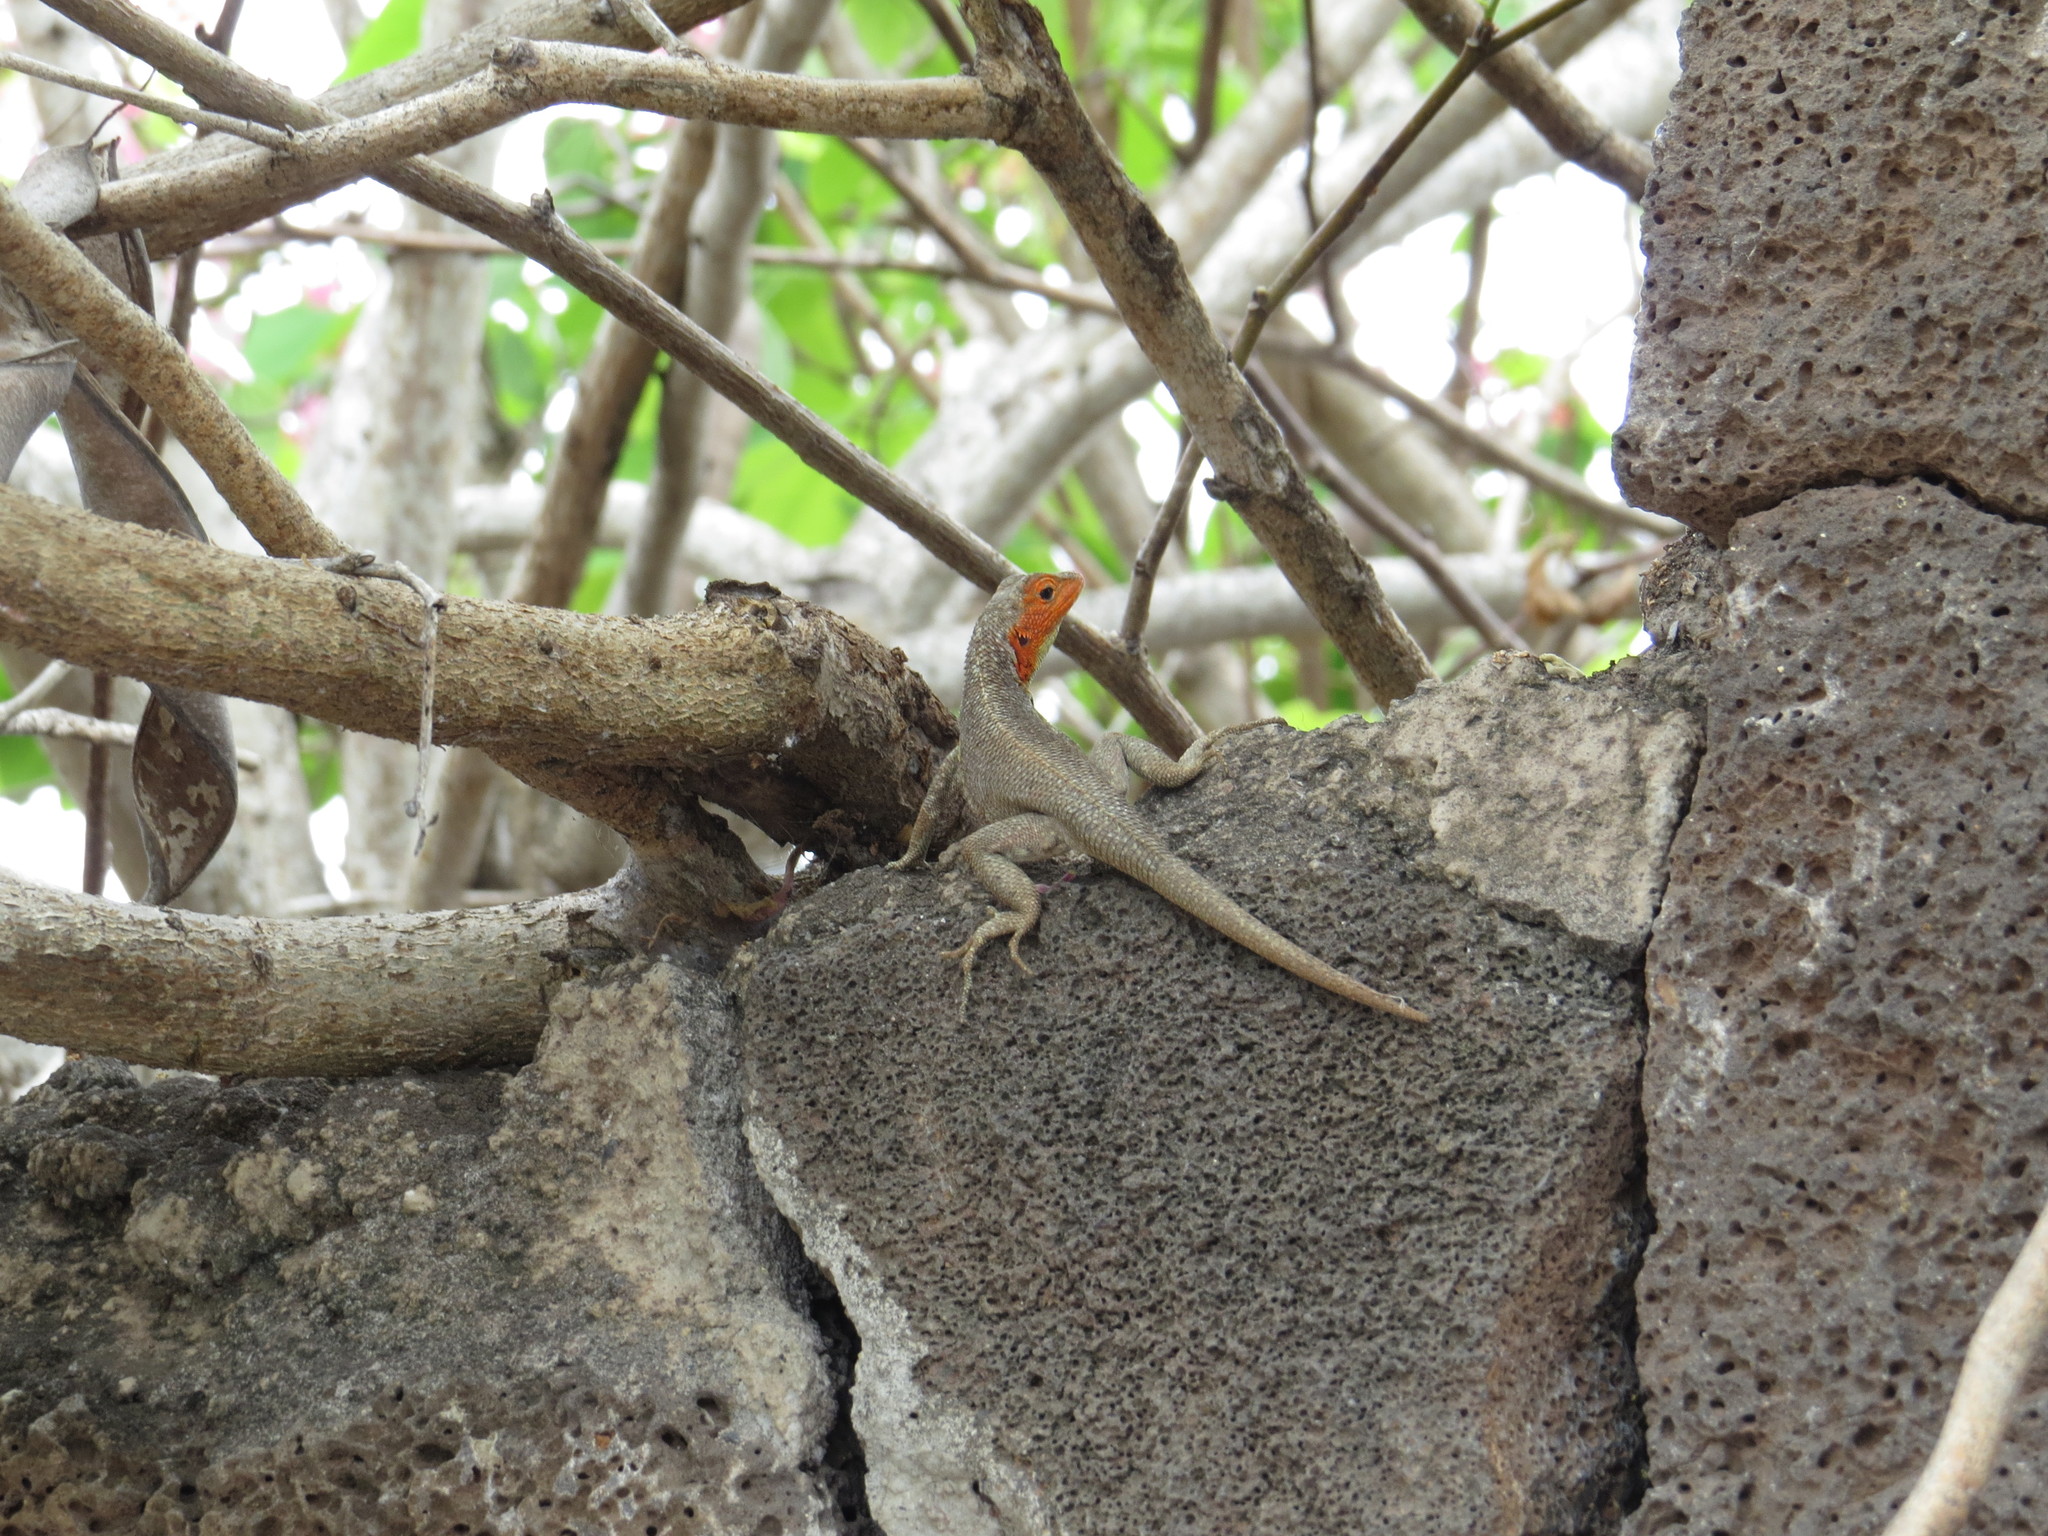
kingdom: Animalia
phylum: Chordata
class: Squamata
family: Tropiduridae
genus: Microlophus
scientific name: Microlophus indefatigabilis
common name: Galapagos lava lizard
